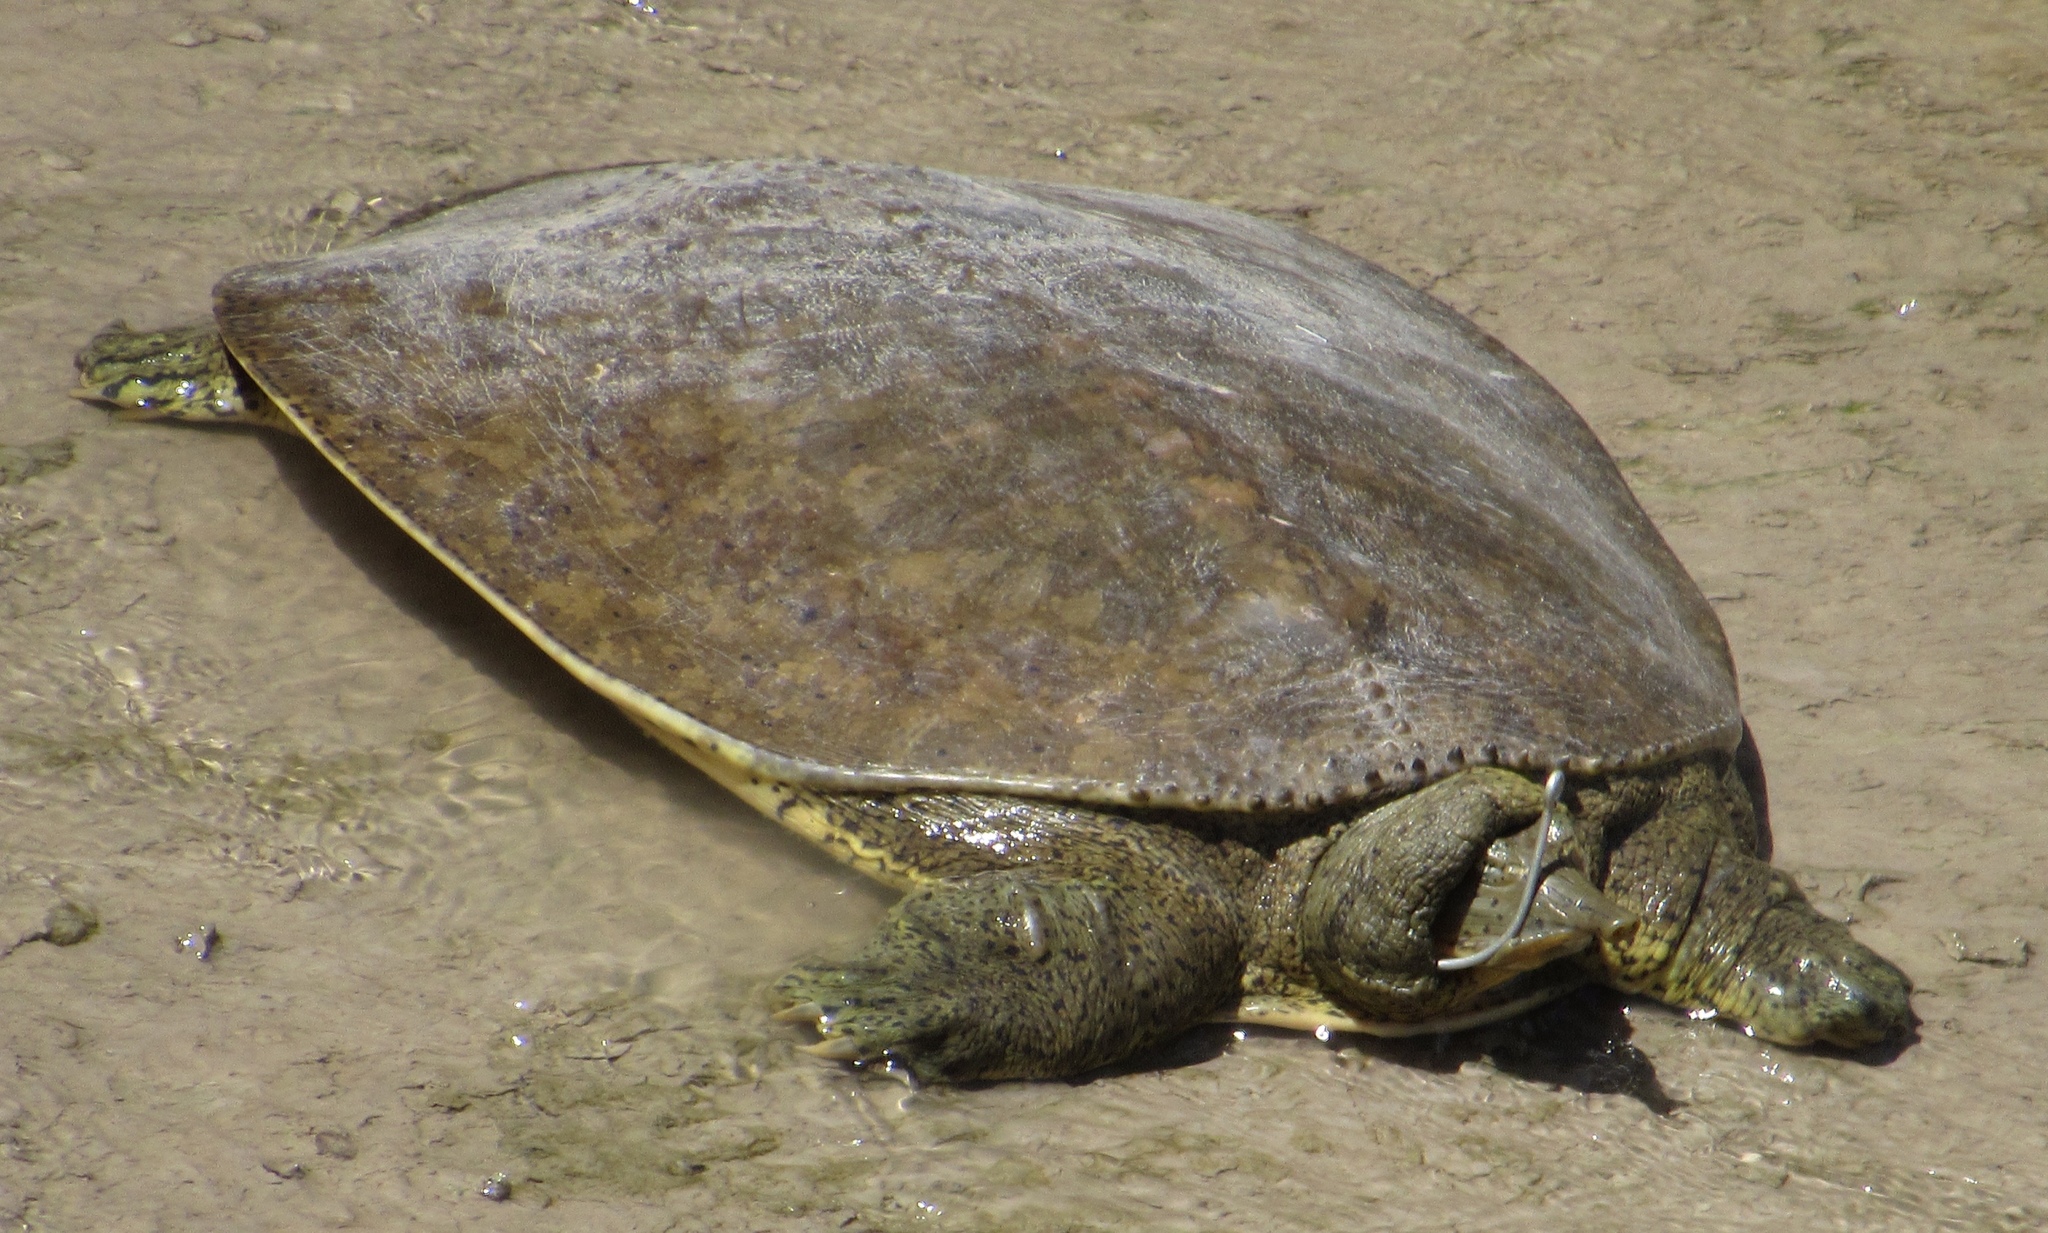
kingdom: Animalia
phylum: Chordata
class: Testudines
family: Trionychidae
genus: Apalone
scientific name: Apalone spinifera
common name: Spiny softshell turtle
